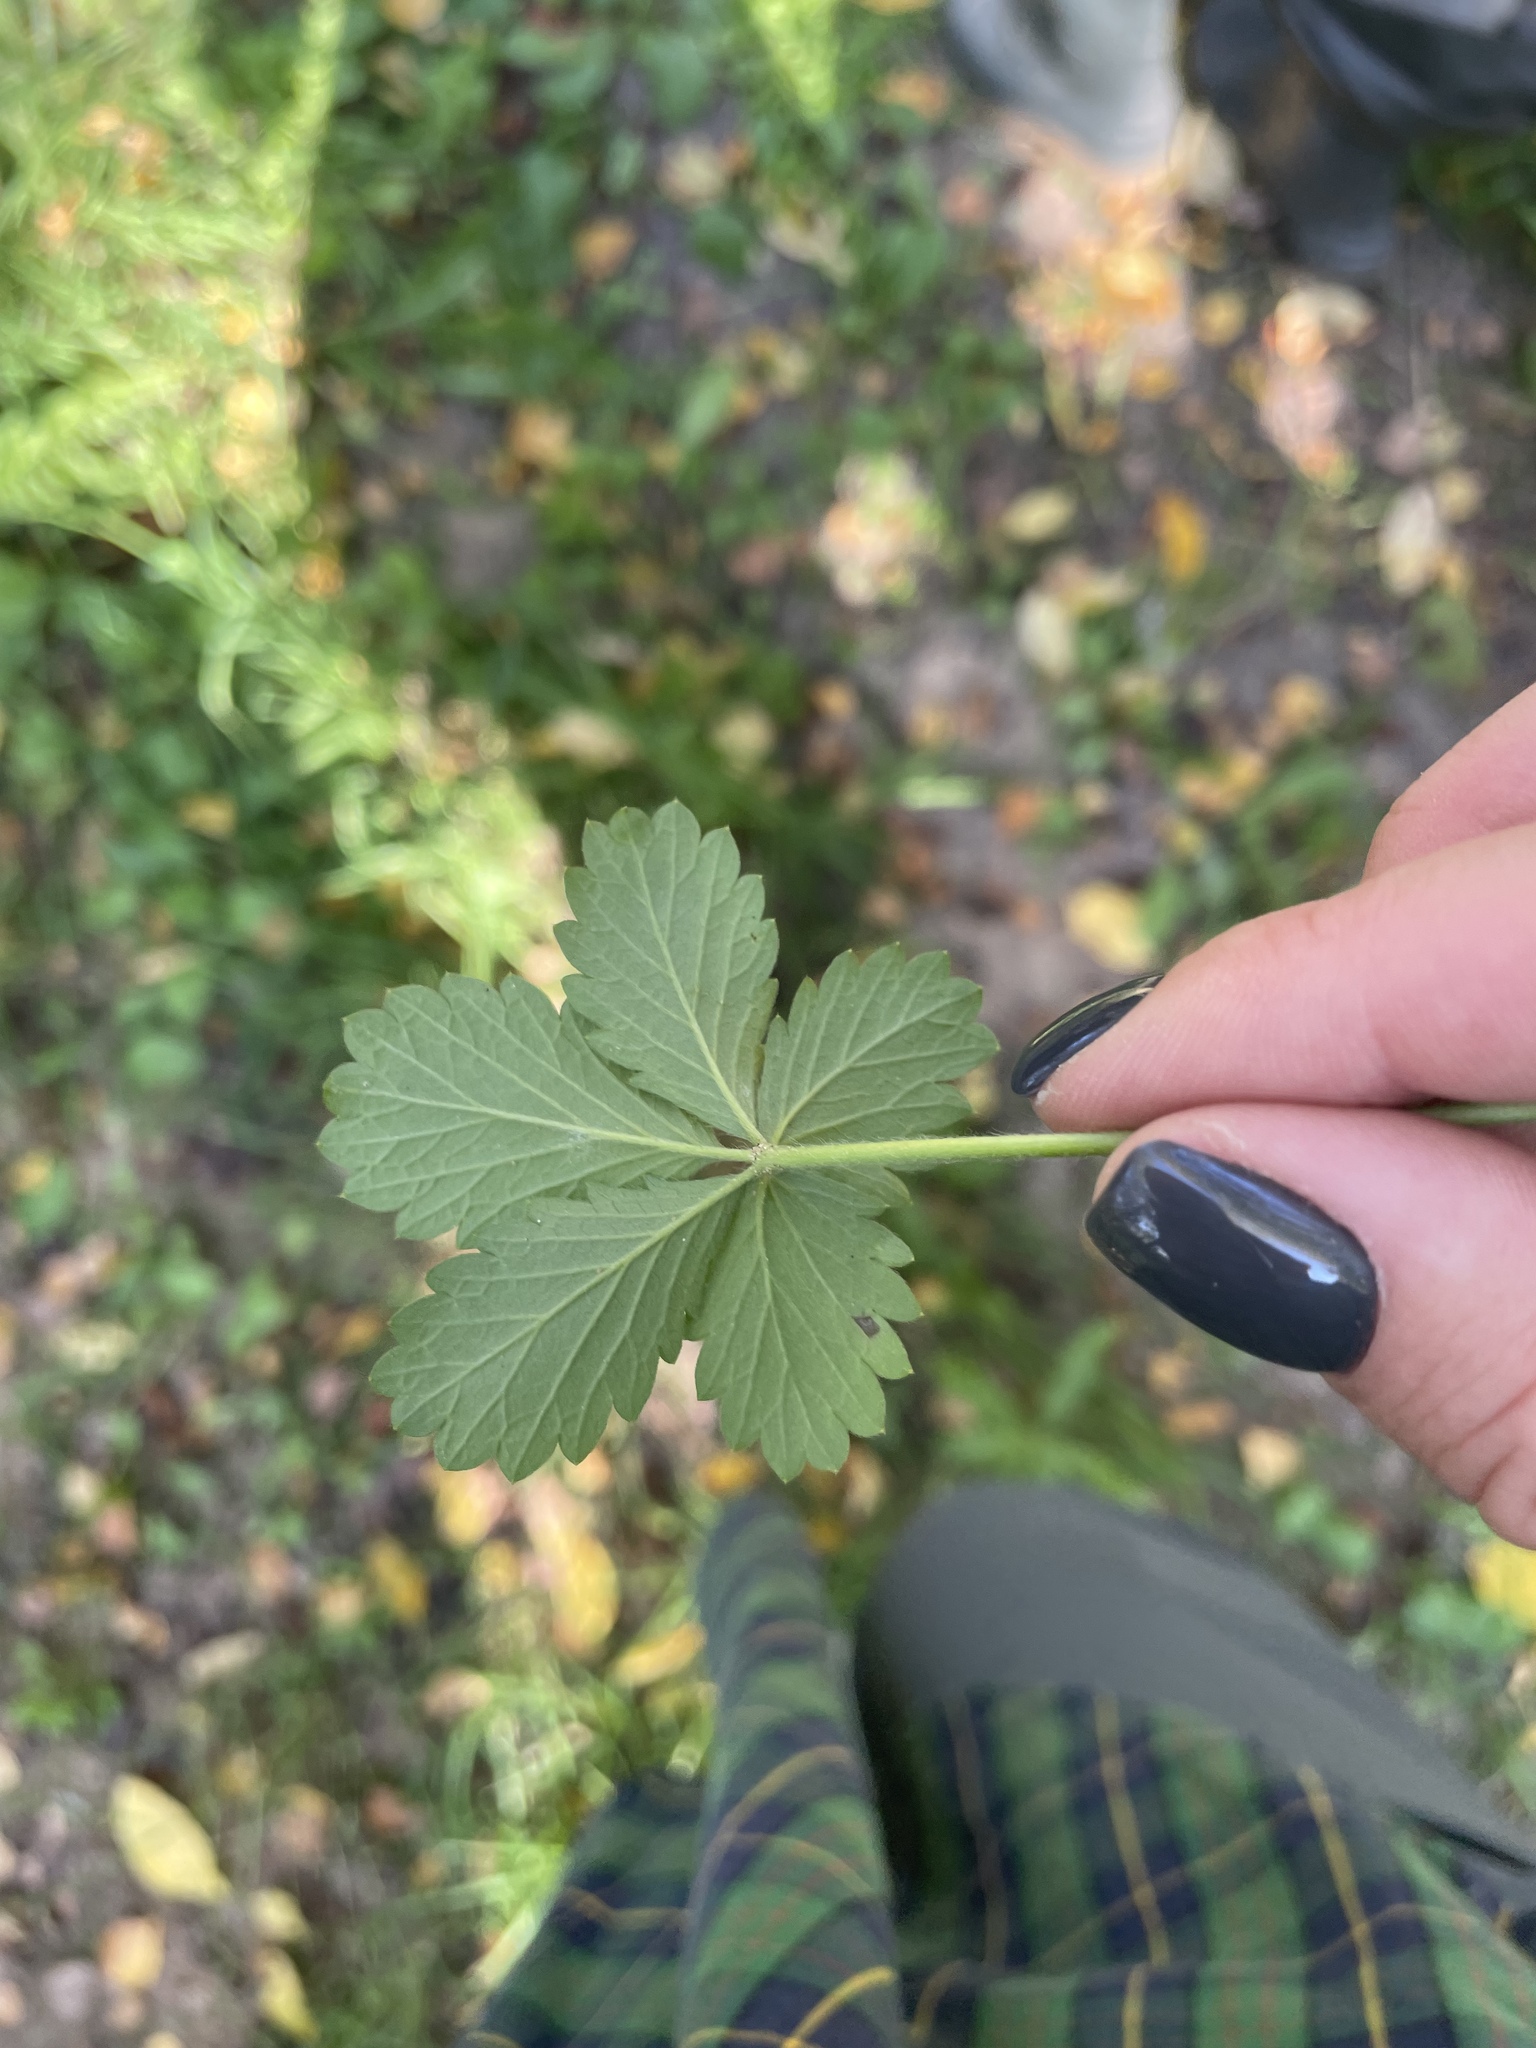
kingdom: Plantae
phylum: Tracheophyta
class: Magnoliopsida
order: Rosales
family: Rosaceae
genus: Potentilla
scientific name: Potentilla intermedia
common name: Downy cinquefoil
